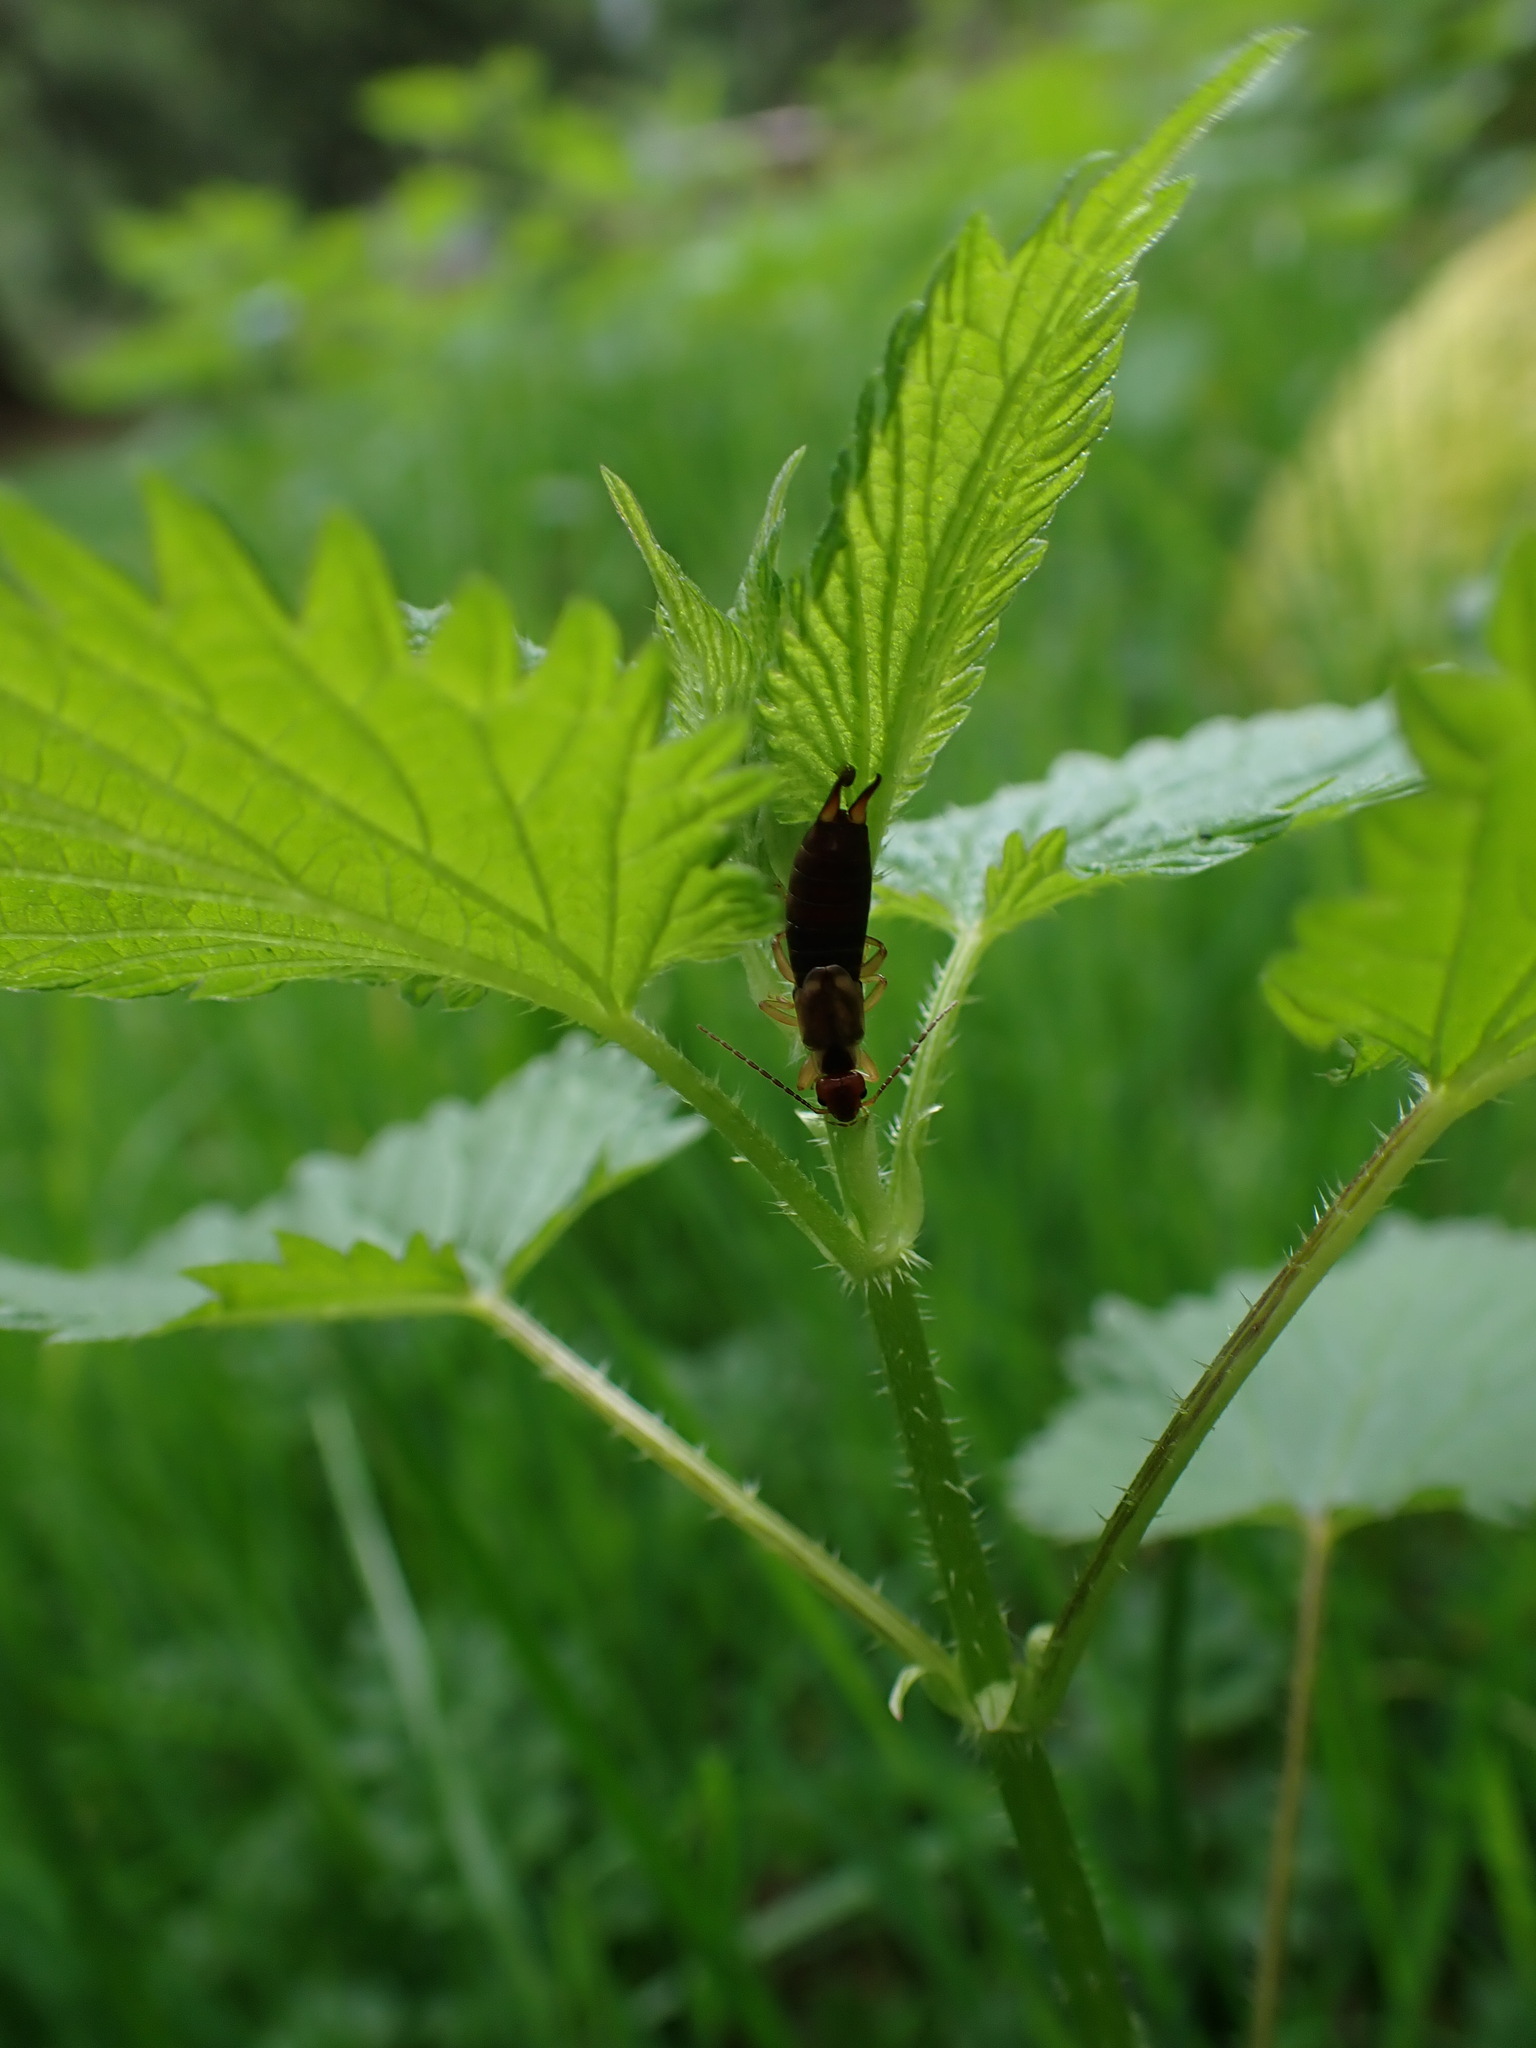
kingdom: Animalia
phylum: Arthropoda
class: Insecta
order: Dermaptera
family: Forficulidae
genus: Forficula
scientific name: Forficula dentata
